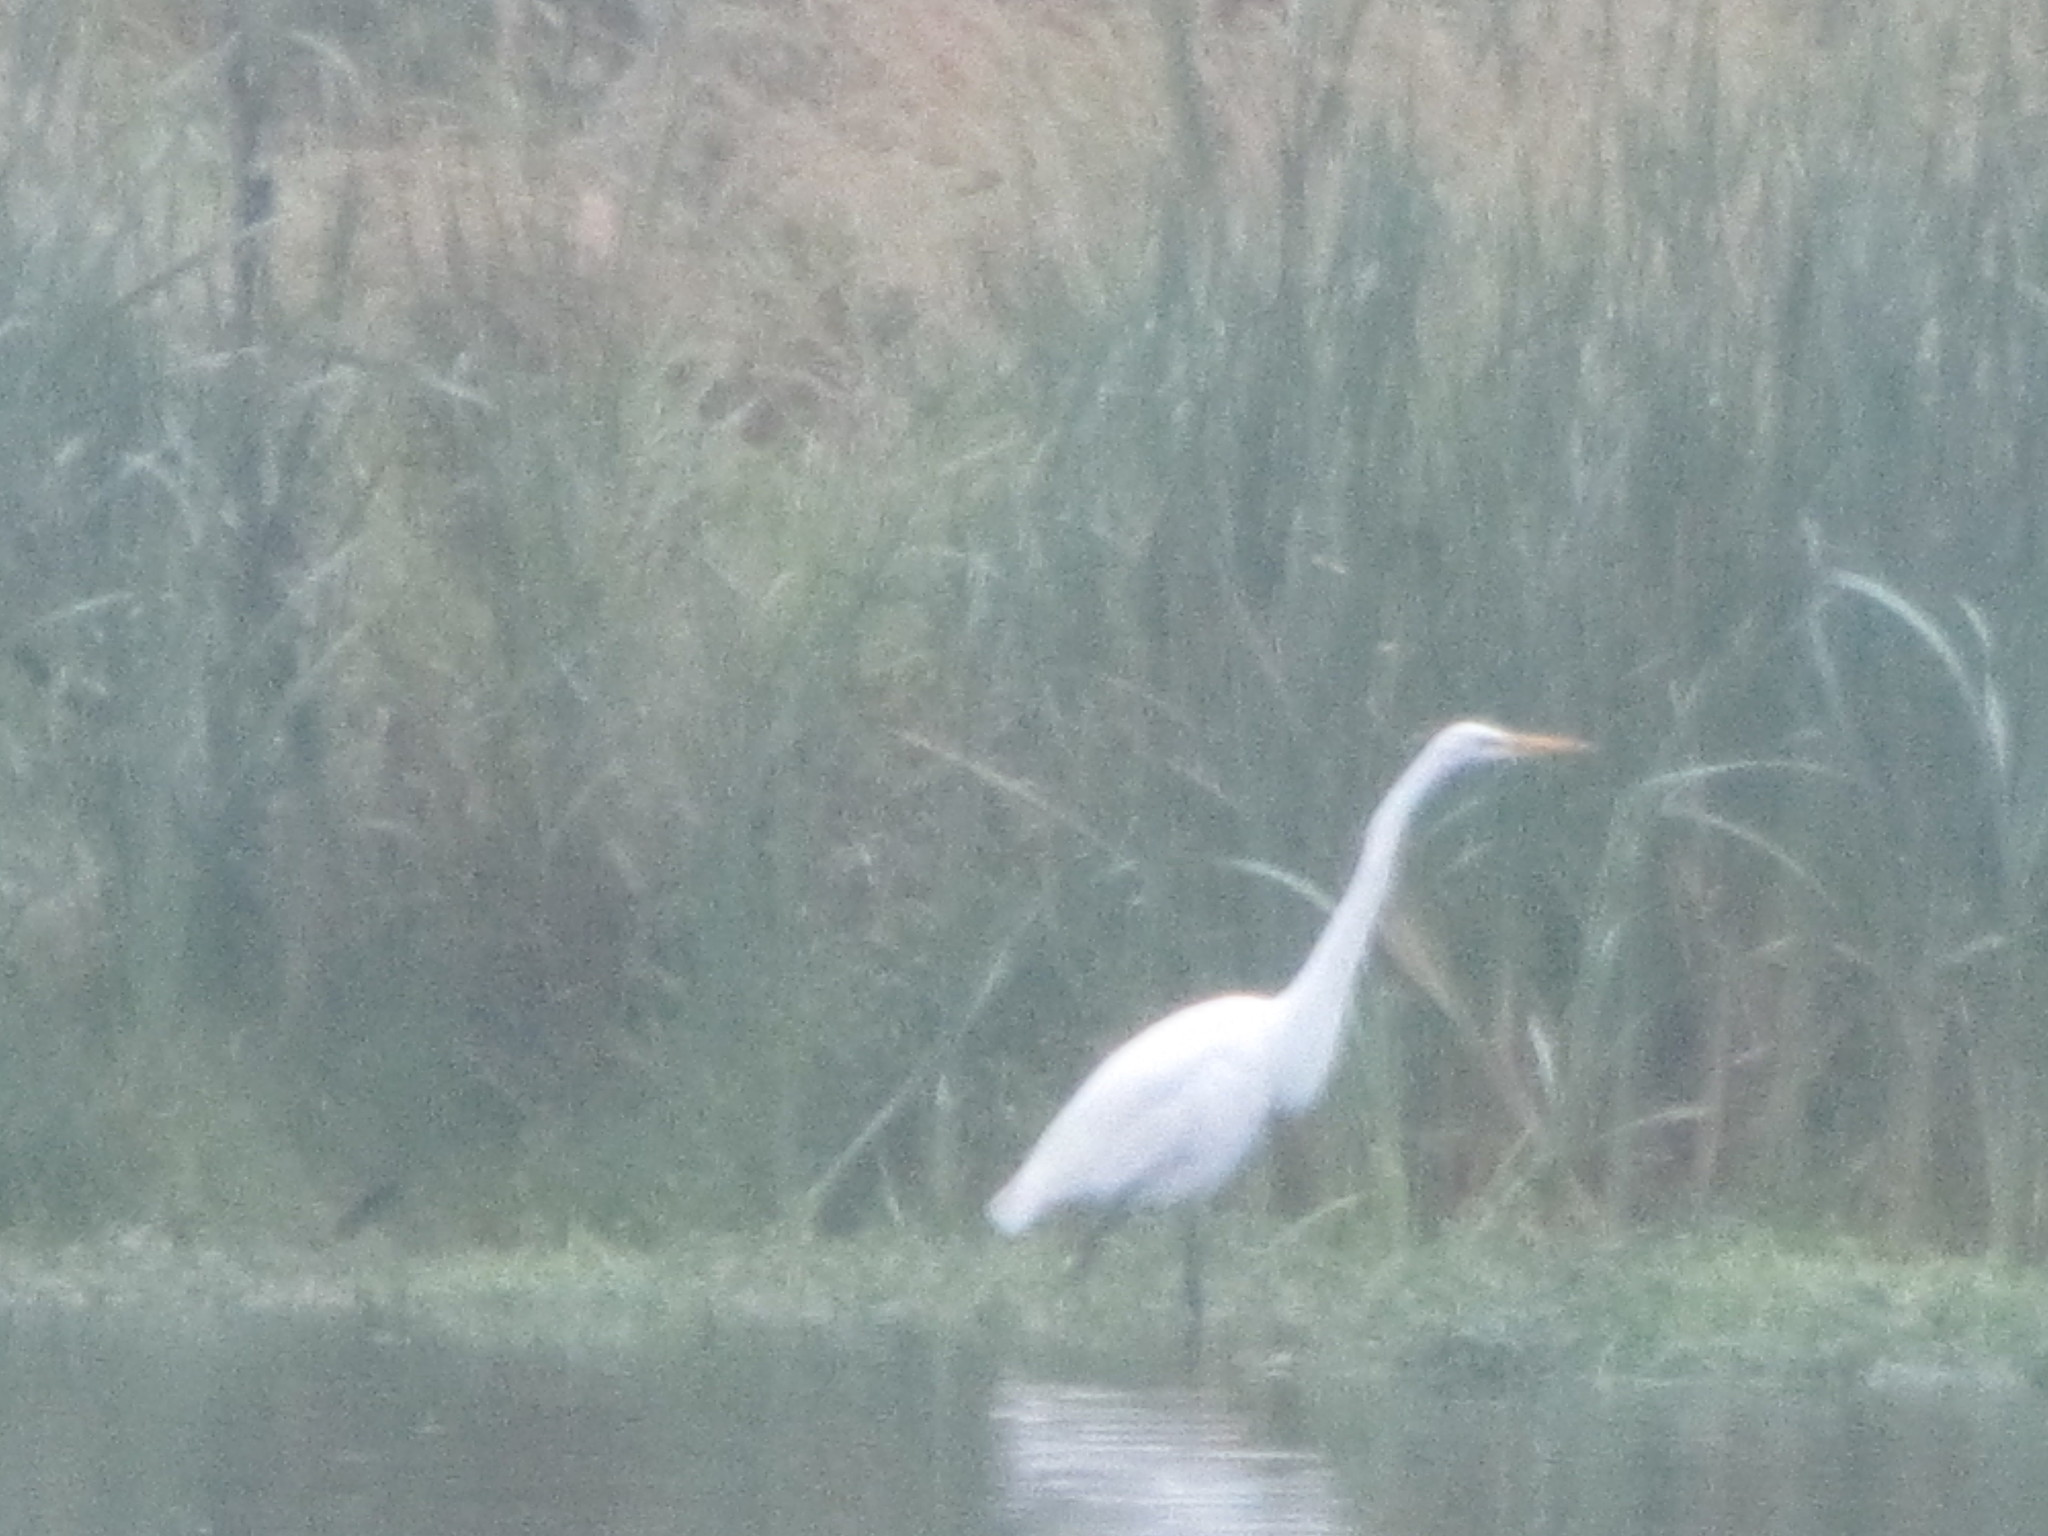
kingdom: Animalia
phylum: Chordata
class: Aves
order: Pelecaniformes
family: Ardeidae
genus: Ardea
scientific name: Ardea alba
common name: Great egret
